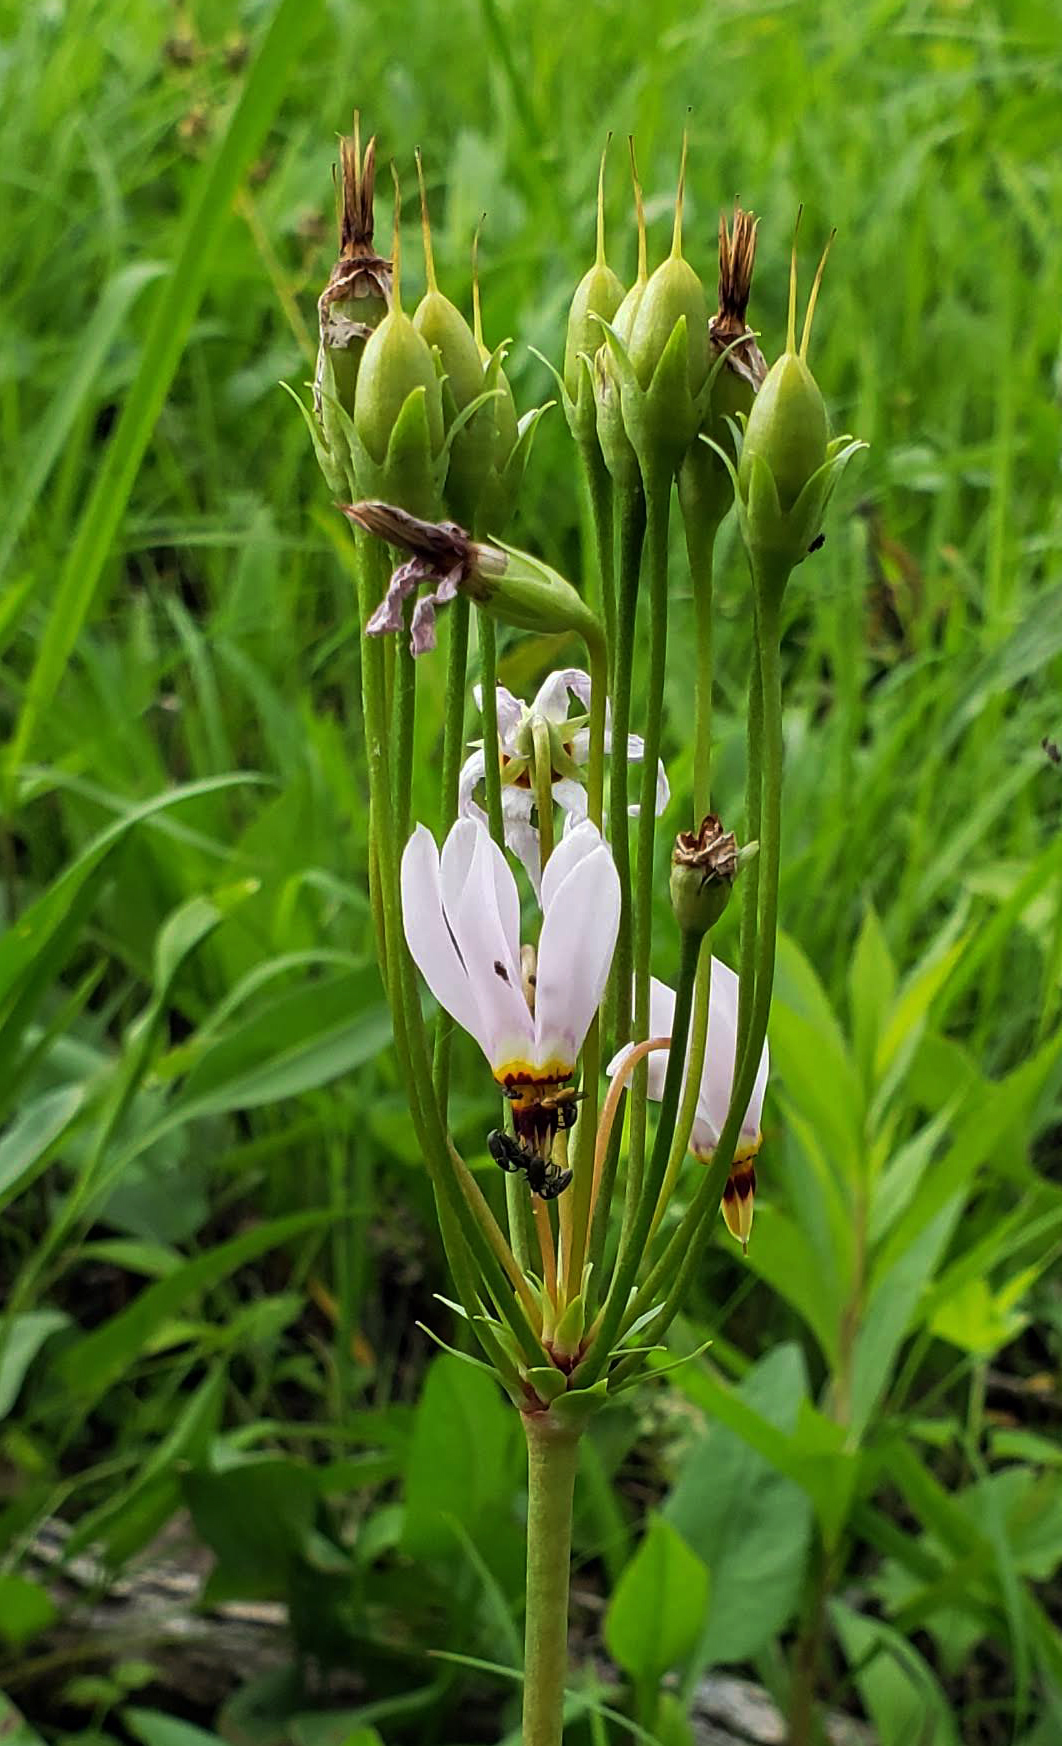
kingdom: Plantae
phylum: Tracheophyta
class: Magnoliopsida
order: Ericales
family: Primulaceae
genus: Dodecatheon
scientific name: Dodecatheon meadia
